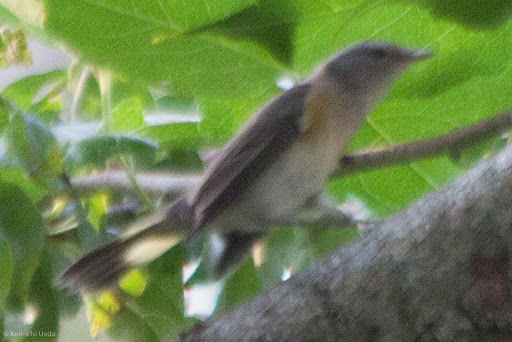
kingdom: Animalia
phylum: Chordata
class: Aves
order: Passeriformes
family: Parulidae
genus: Setophaga
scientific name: Setophaga ruticilla
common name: American redstart
